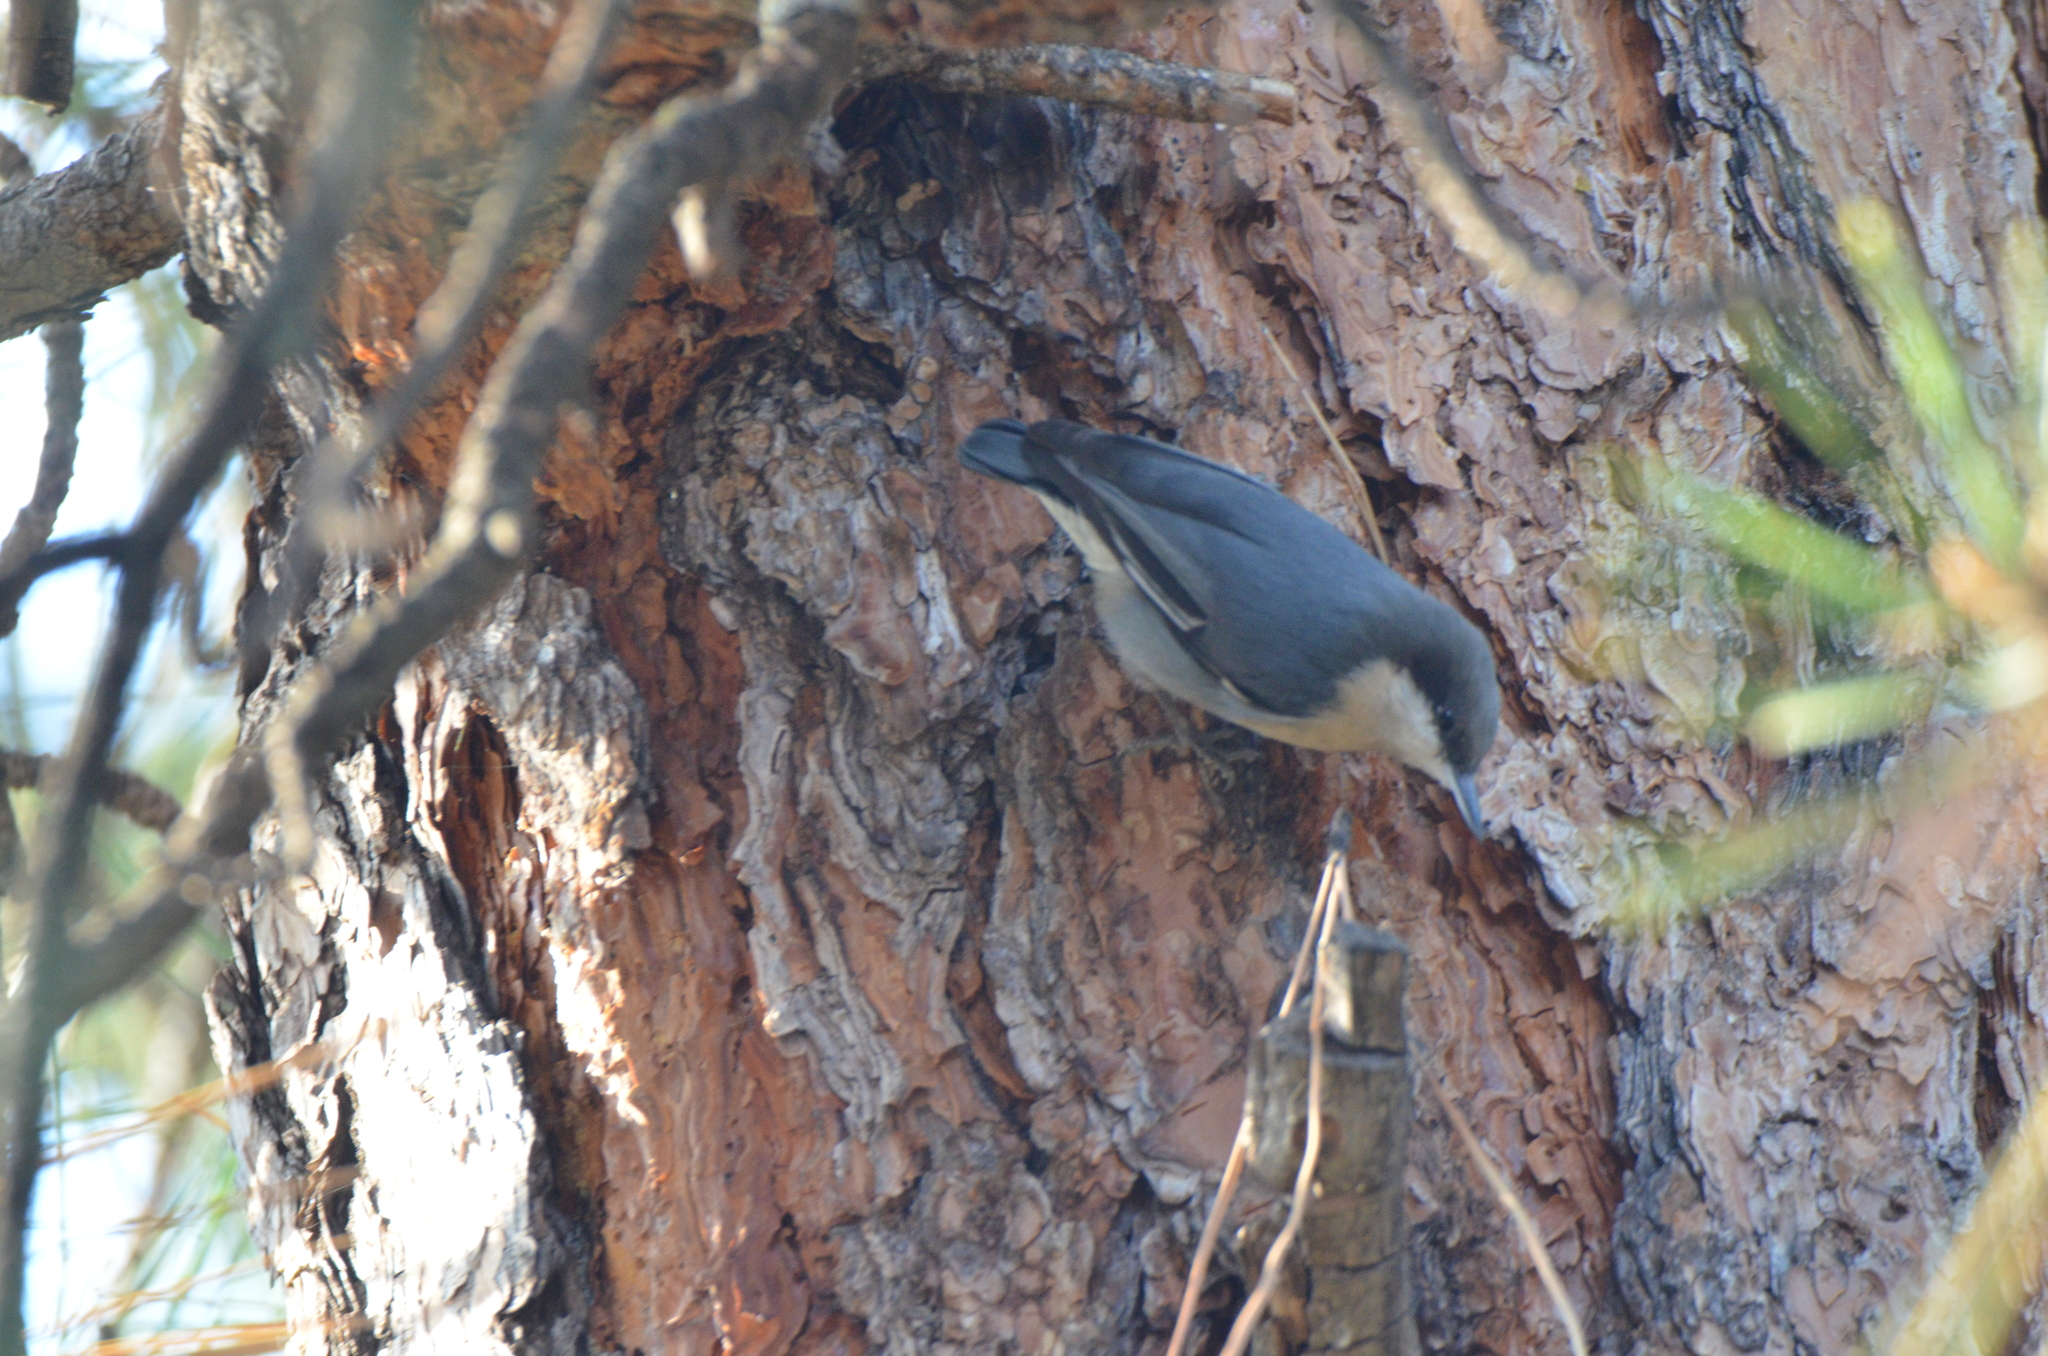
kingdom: Animalia
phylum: Chordata
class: Aves
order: Passeriformes
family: Sittidae
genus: Sitta
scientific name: Sitta pygmaea
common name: Pygmy nuthatch
